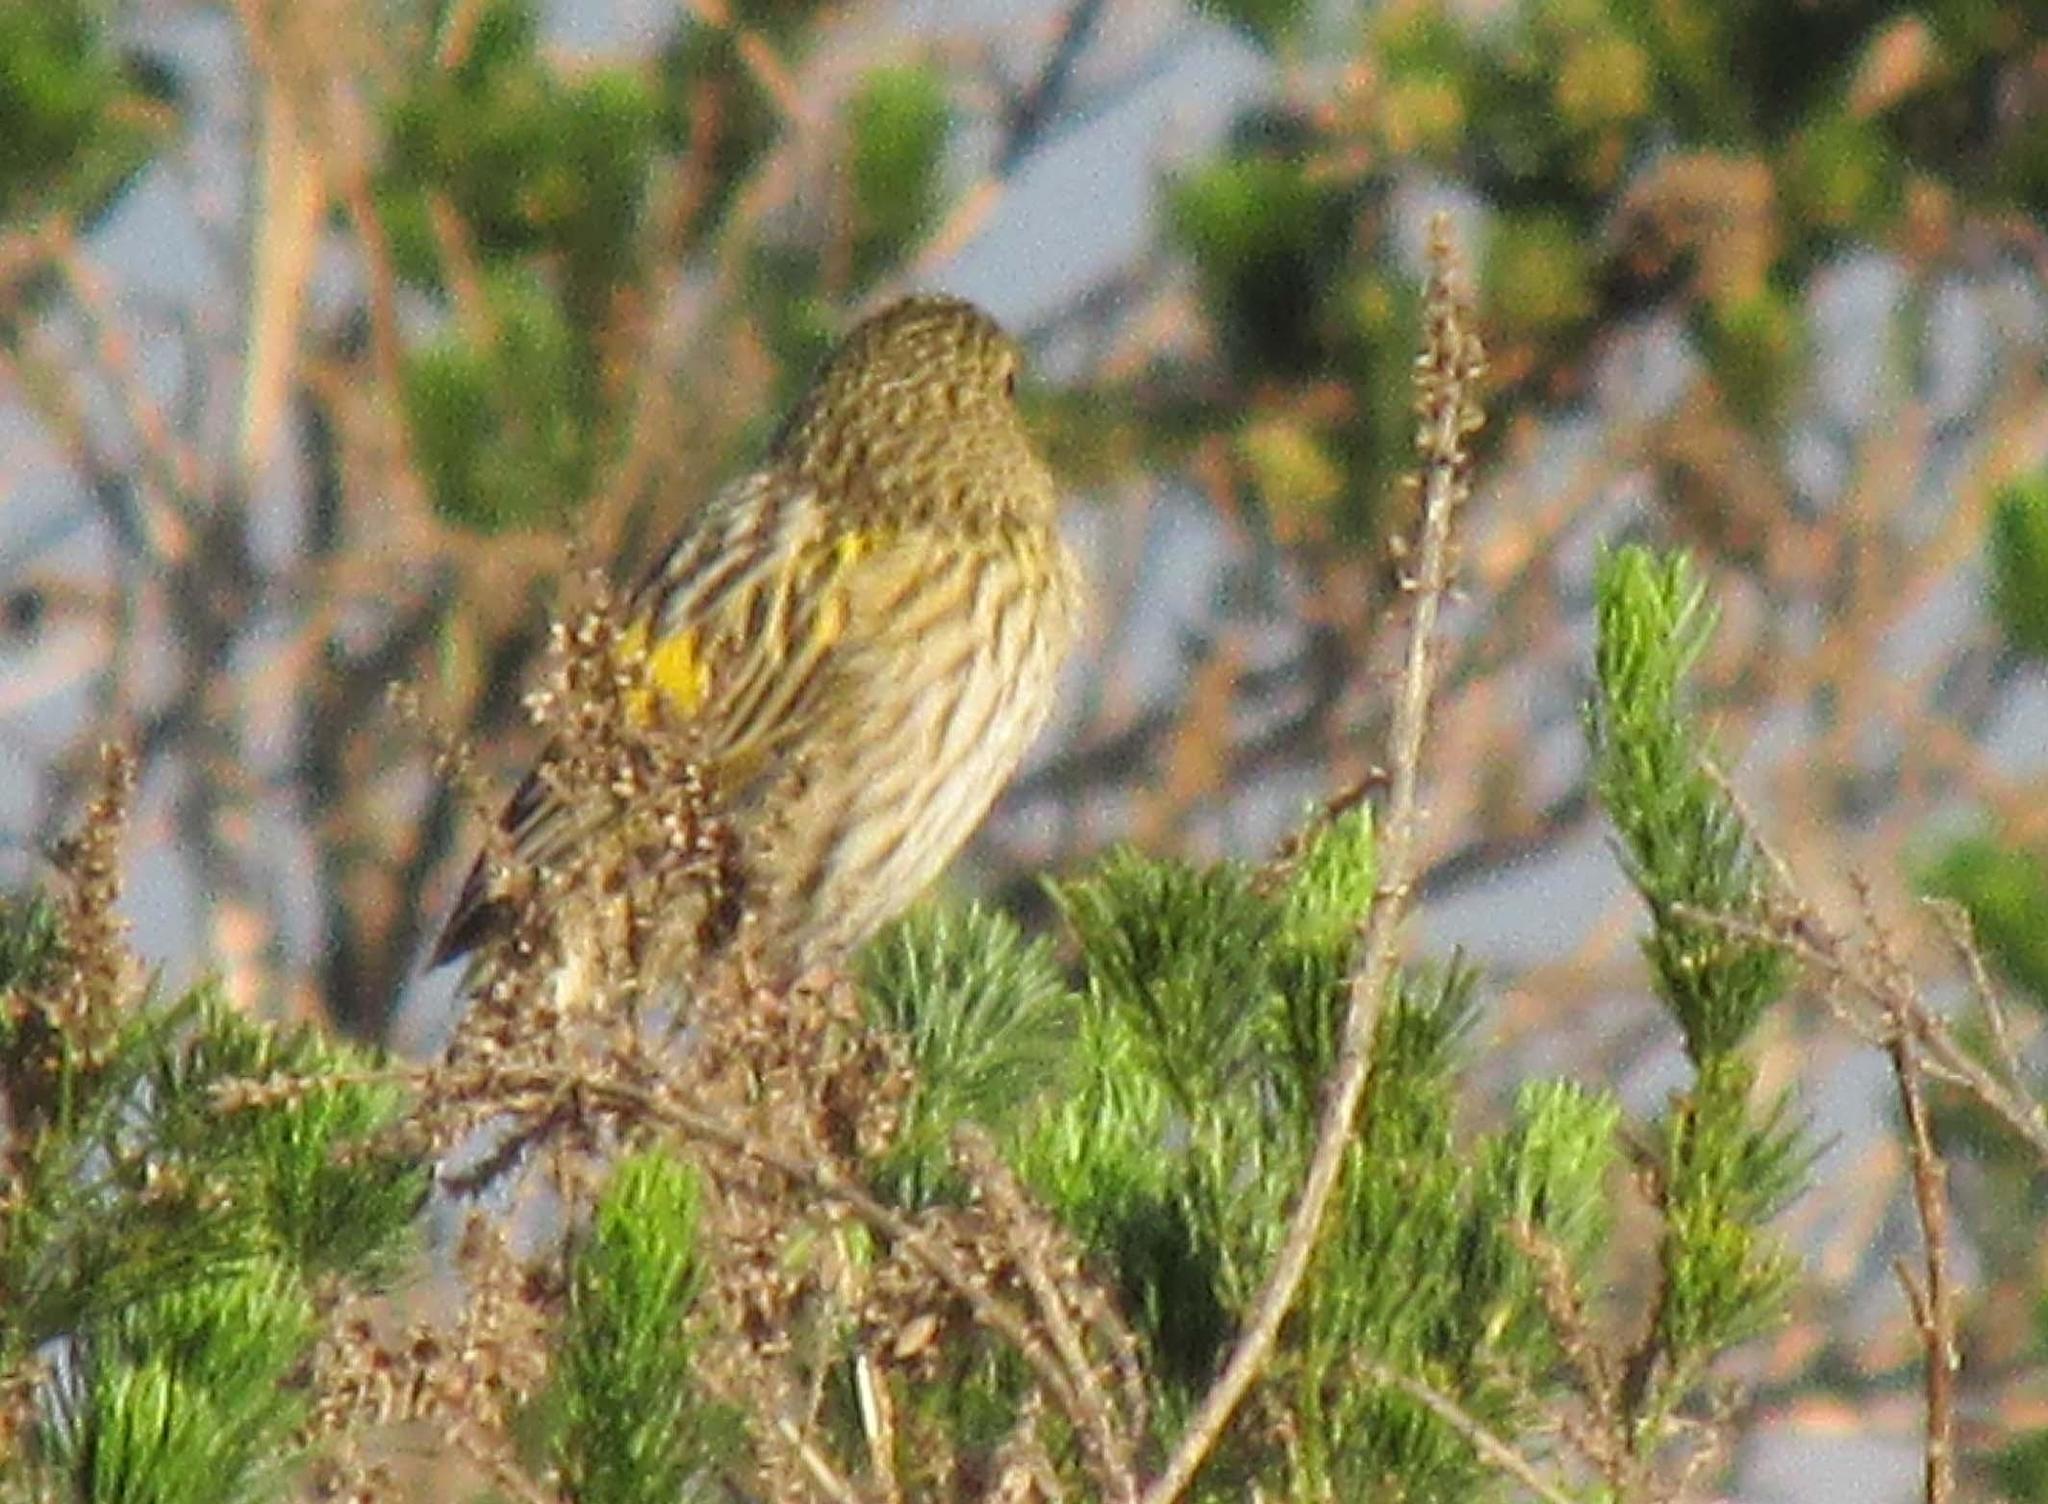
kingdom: Animalia
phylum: Chordata
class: Aves
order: Passeriformes
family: Ploceidae
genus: Euplectes
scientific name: Euplectes capensis
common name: Yellow bishop
